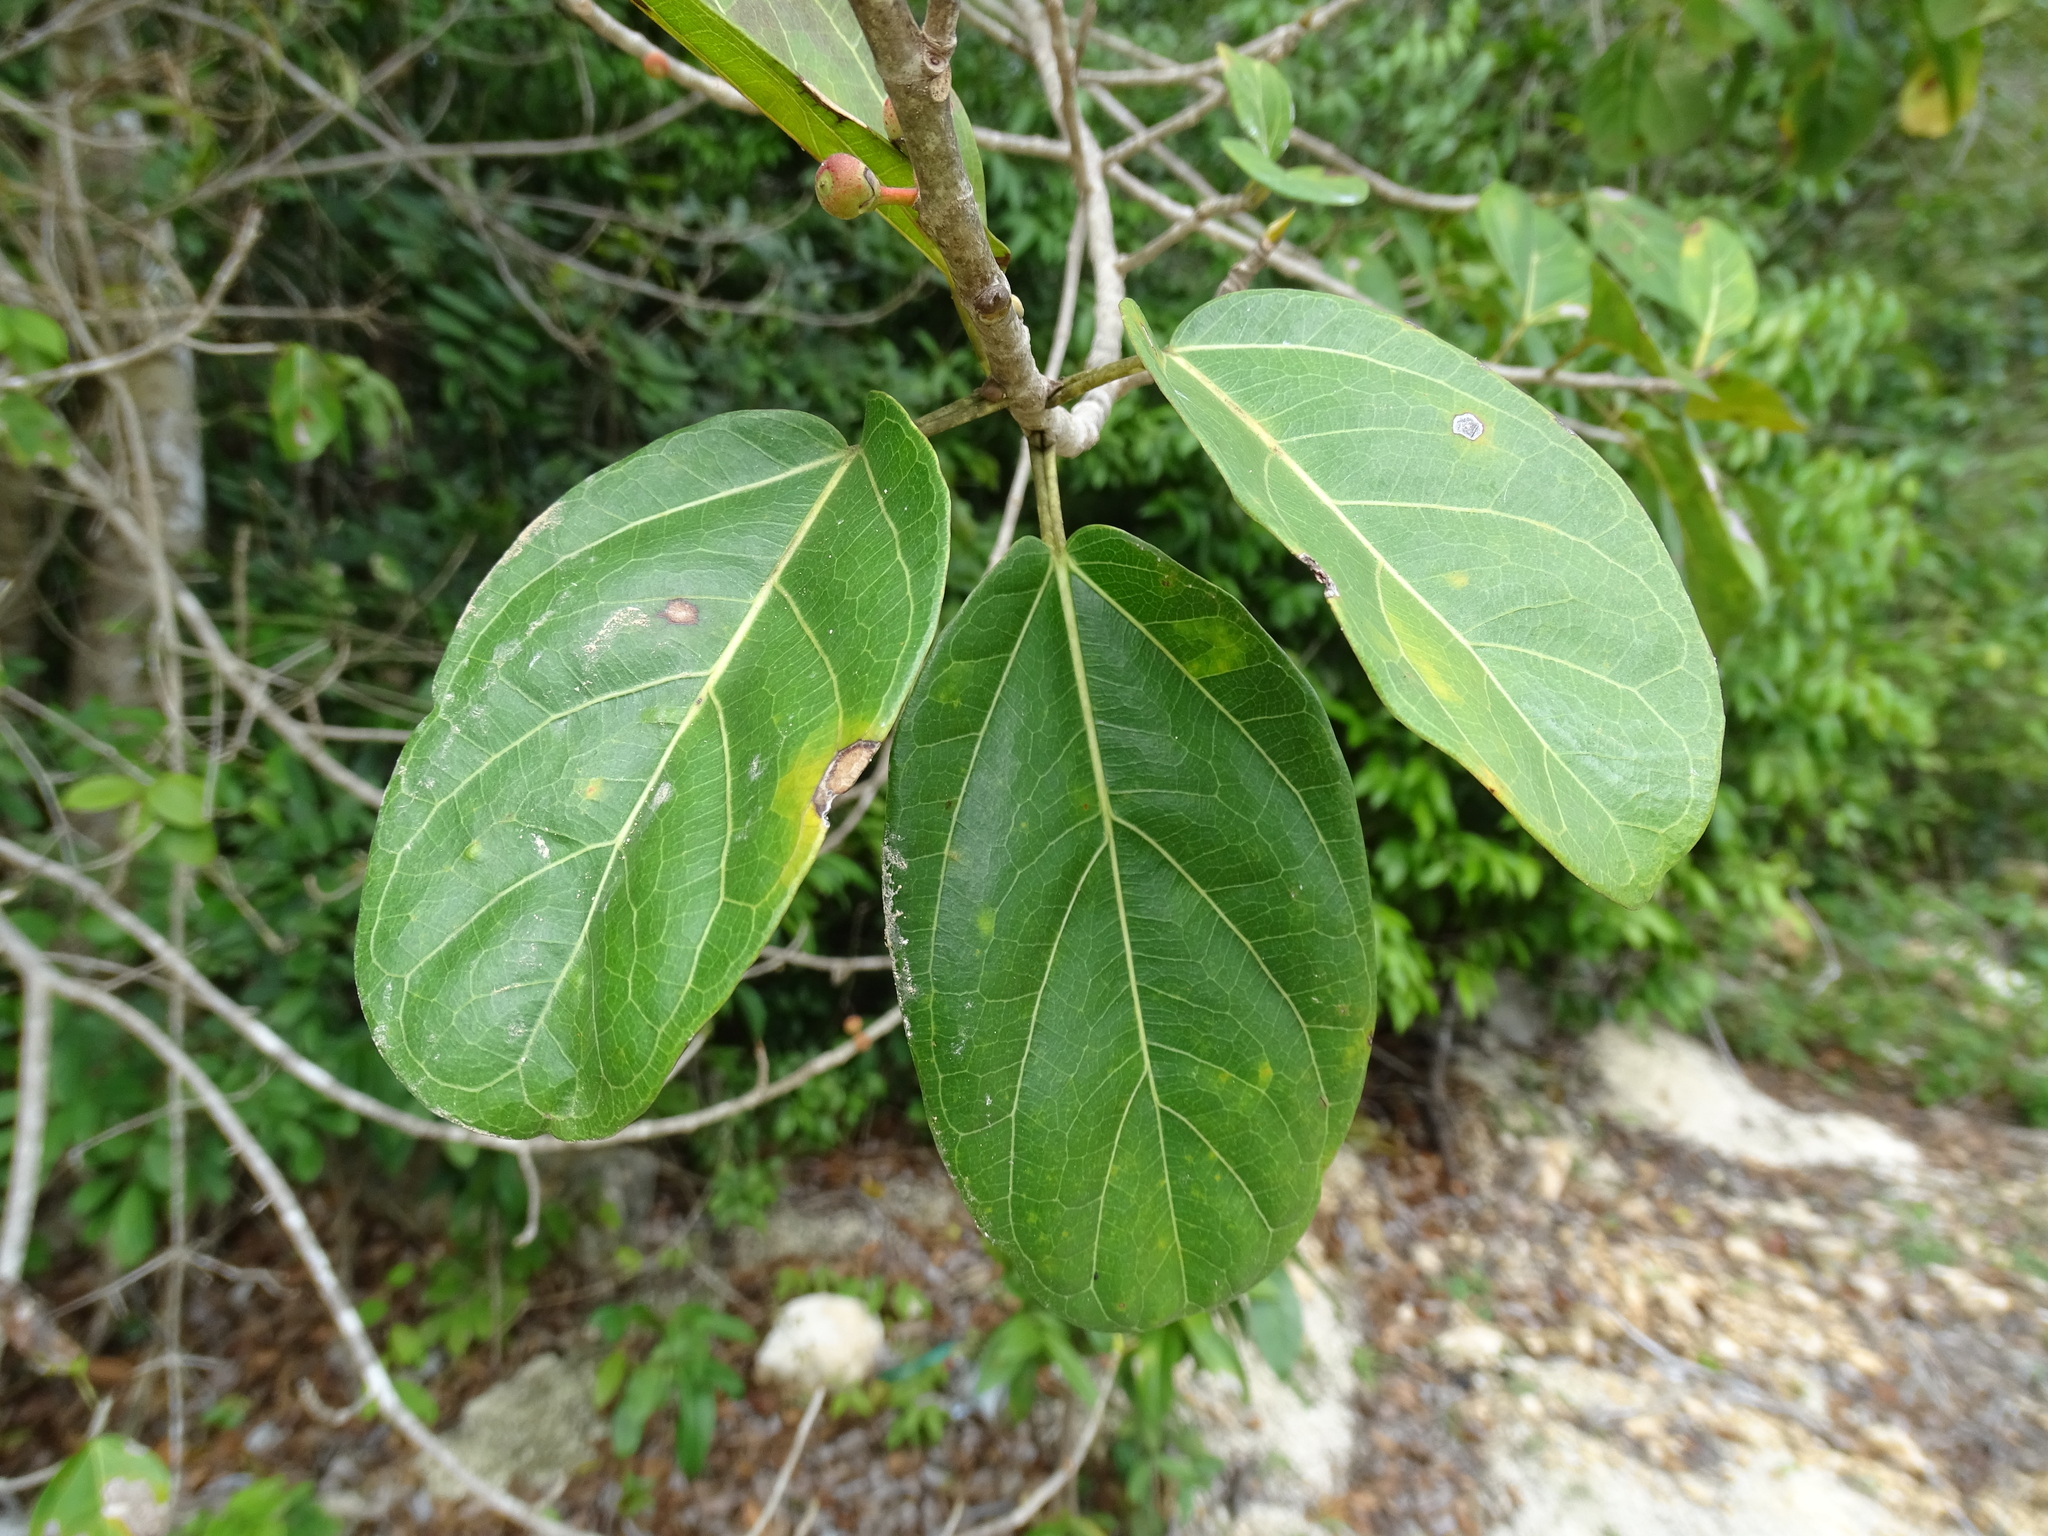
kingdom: Plantae
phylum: Tracheophyta
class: Magnoliopsida
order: Rosales
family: Moraceae
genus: Ficus
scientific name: Ficus crassinervia
